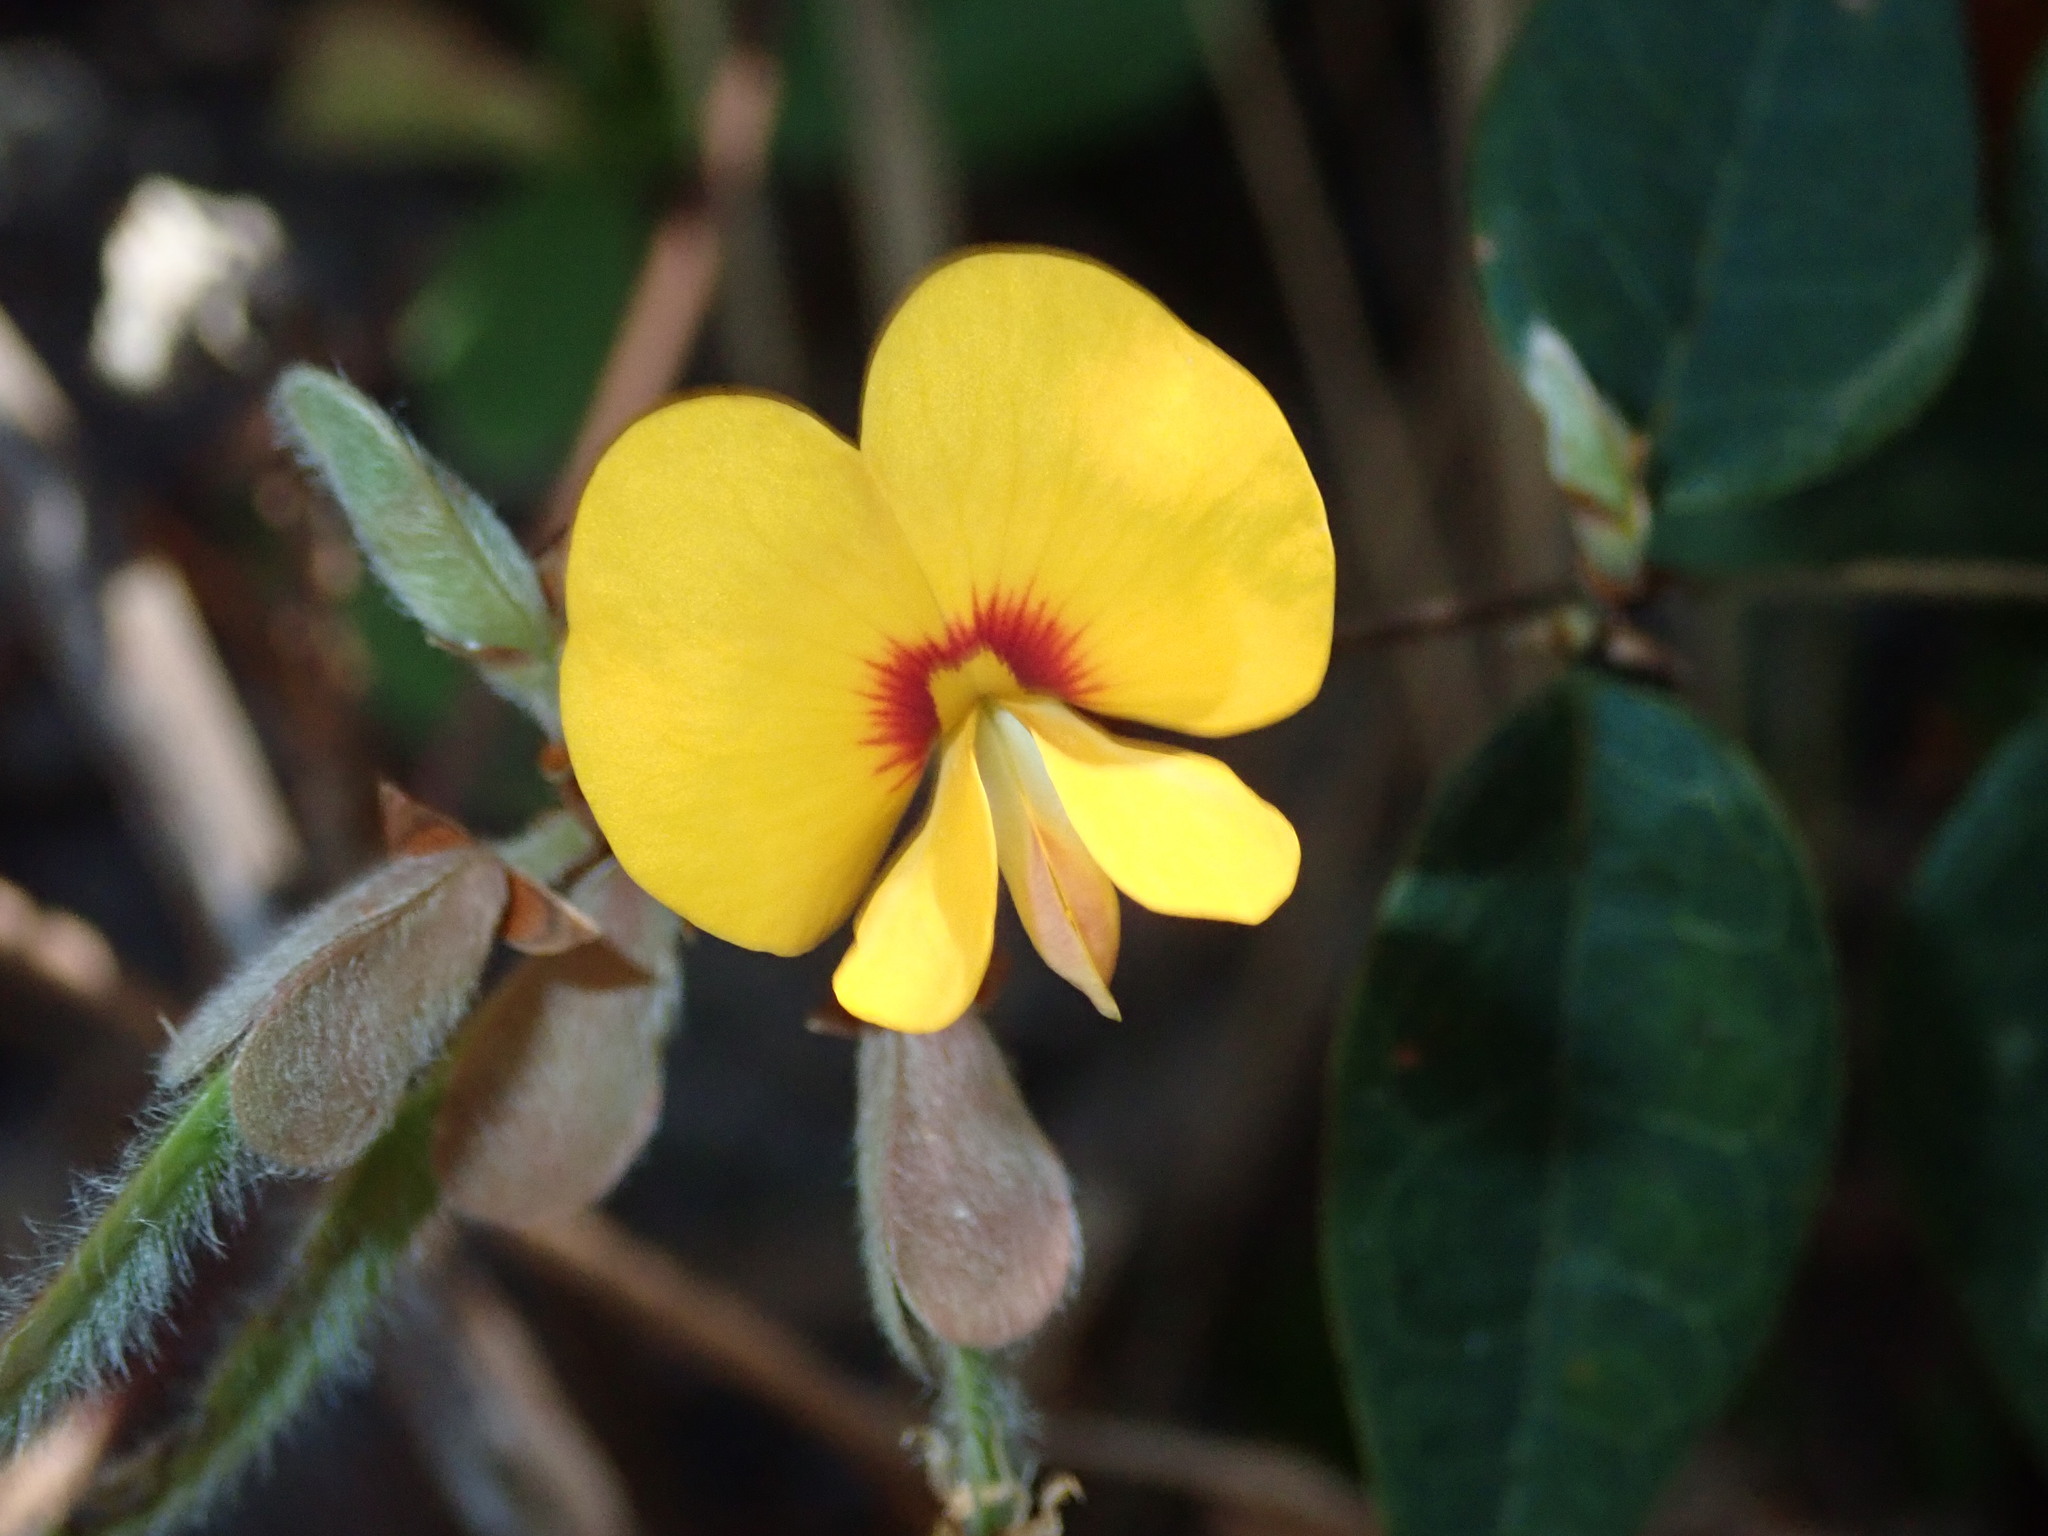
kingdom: Plantae
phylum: Tracheophyta
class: Magnoliopsida
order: Fabales
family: Fabaceae
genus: Platylobium
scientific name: Platylobium formosum
